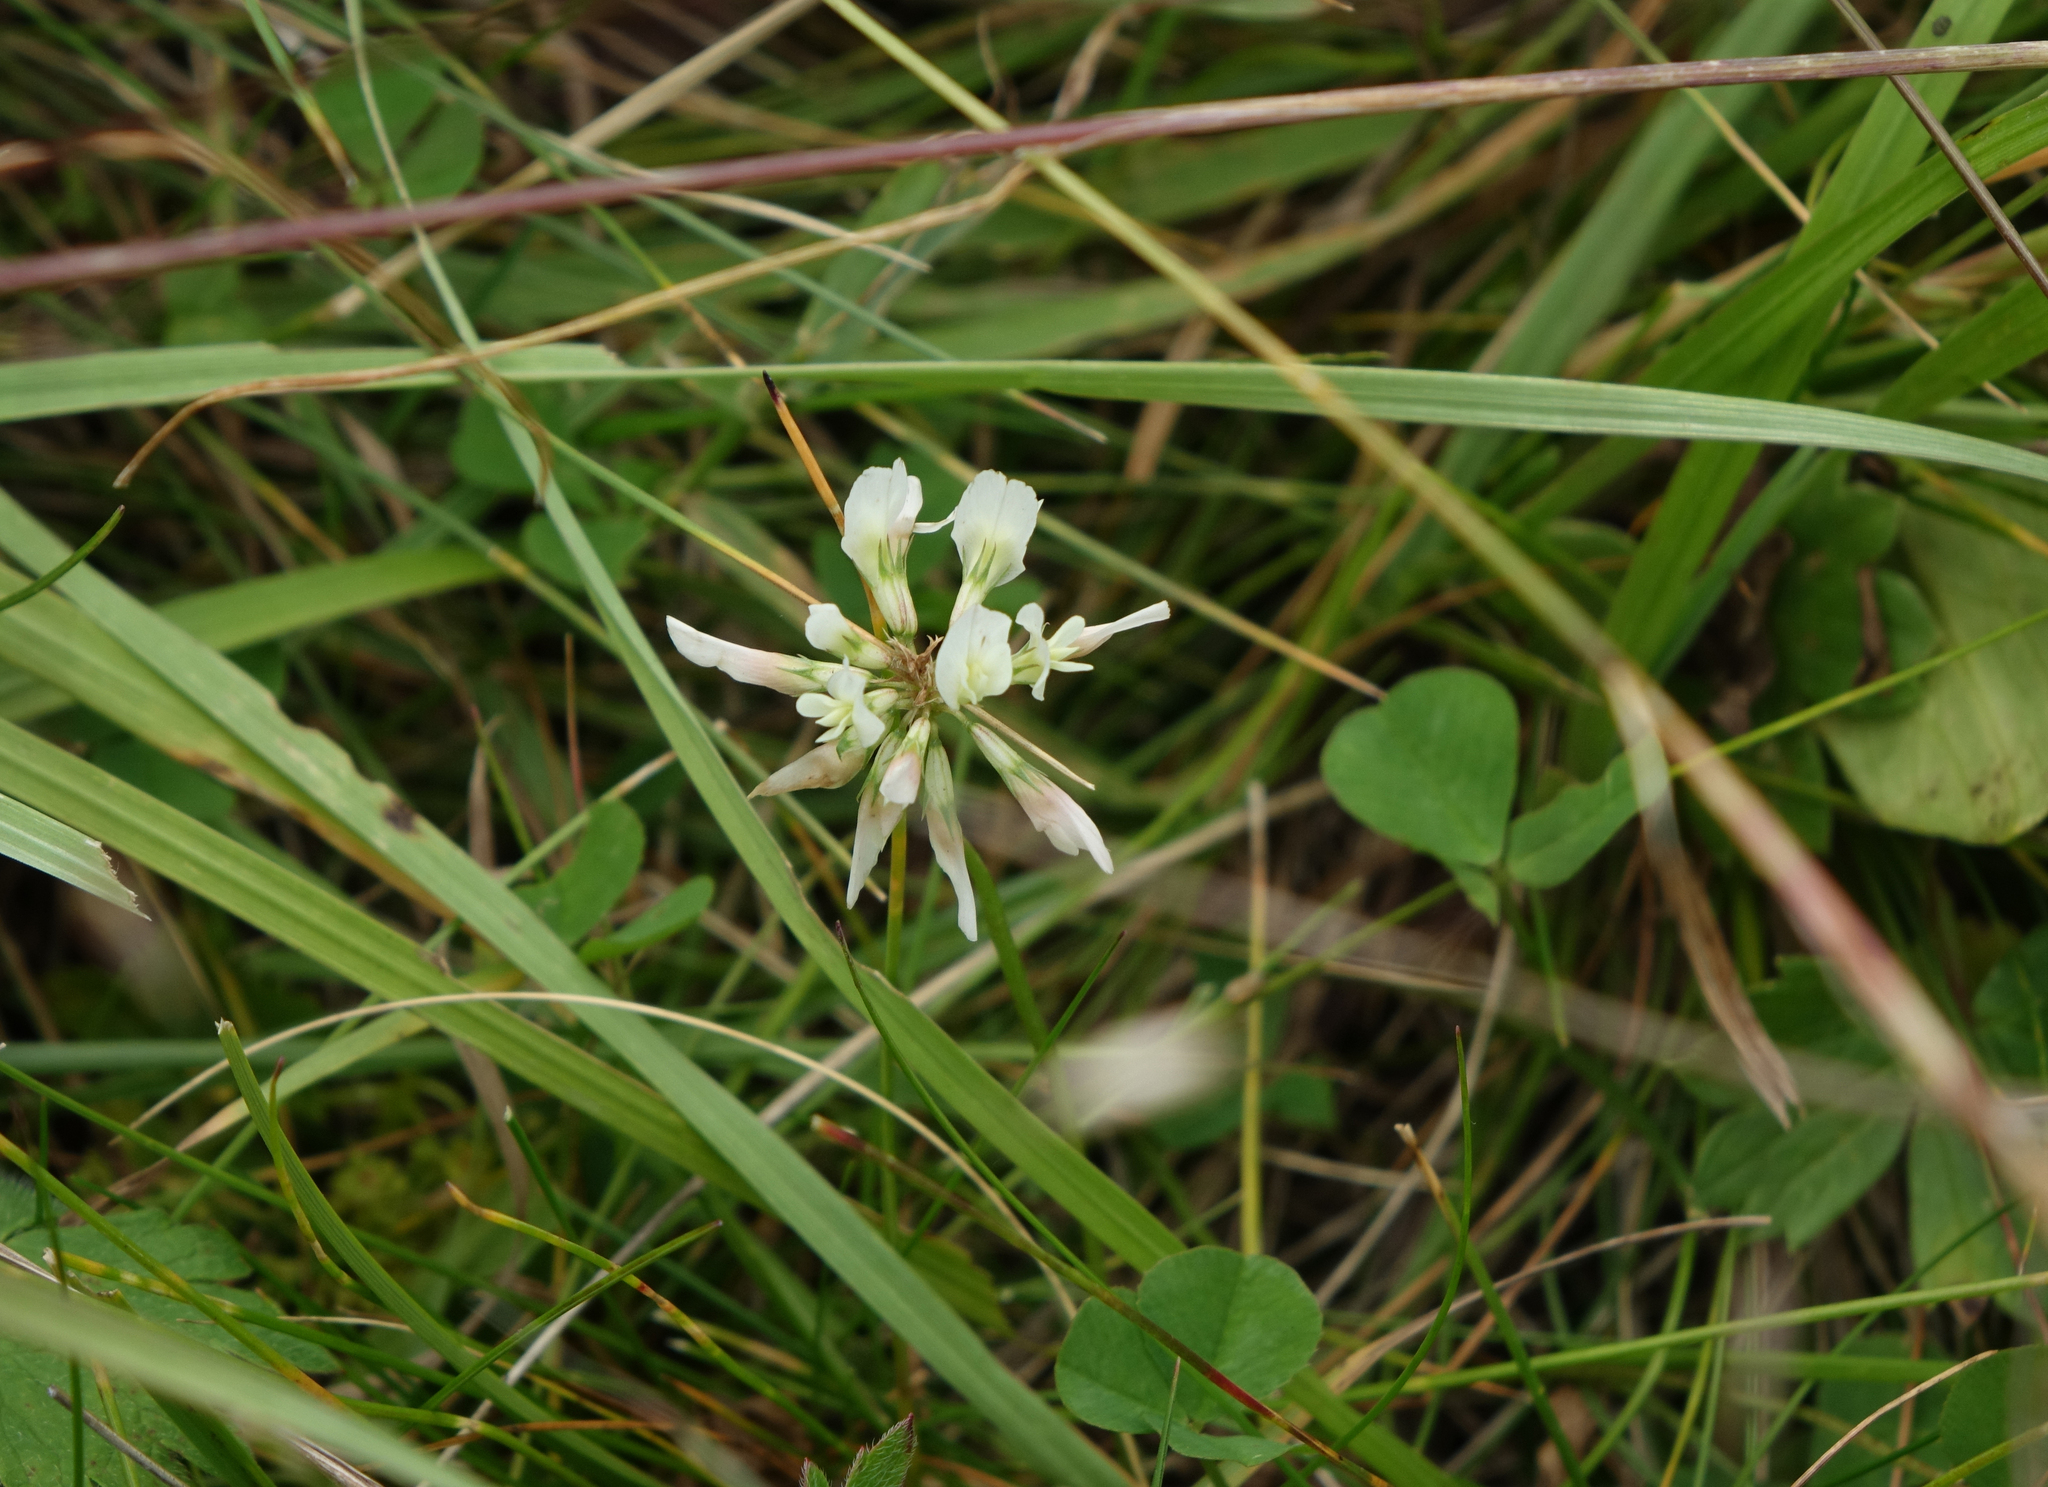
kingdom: Plantae
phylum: Tracheophyta
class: Magnoliopsida
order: Fabales
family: Fabaceae
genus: Trifolium
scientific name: Trifolium repens
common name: White clover
